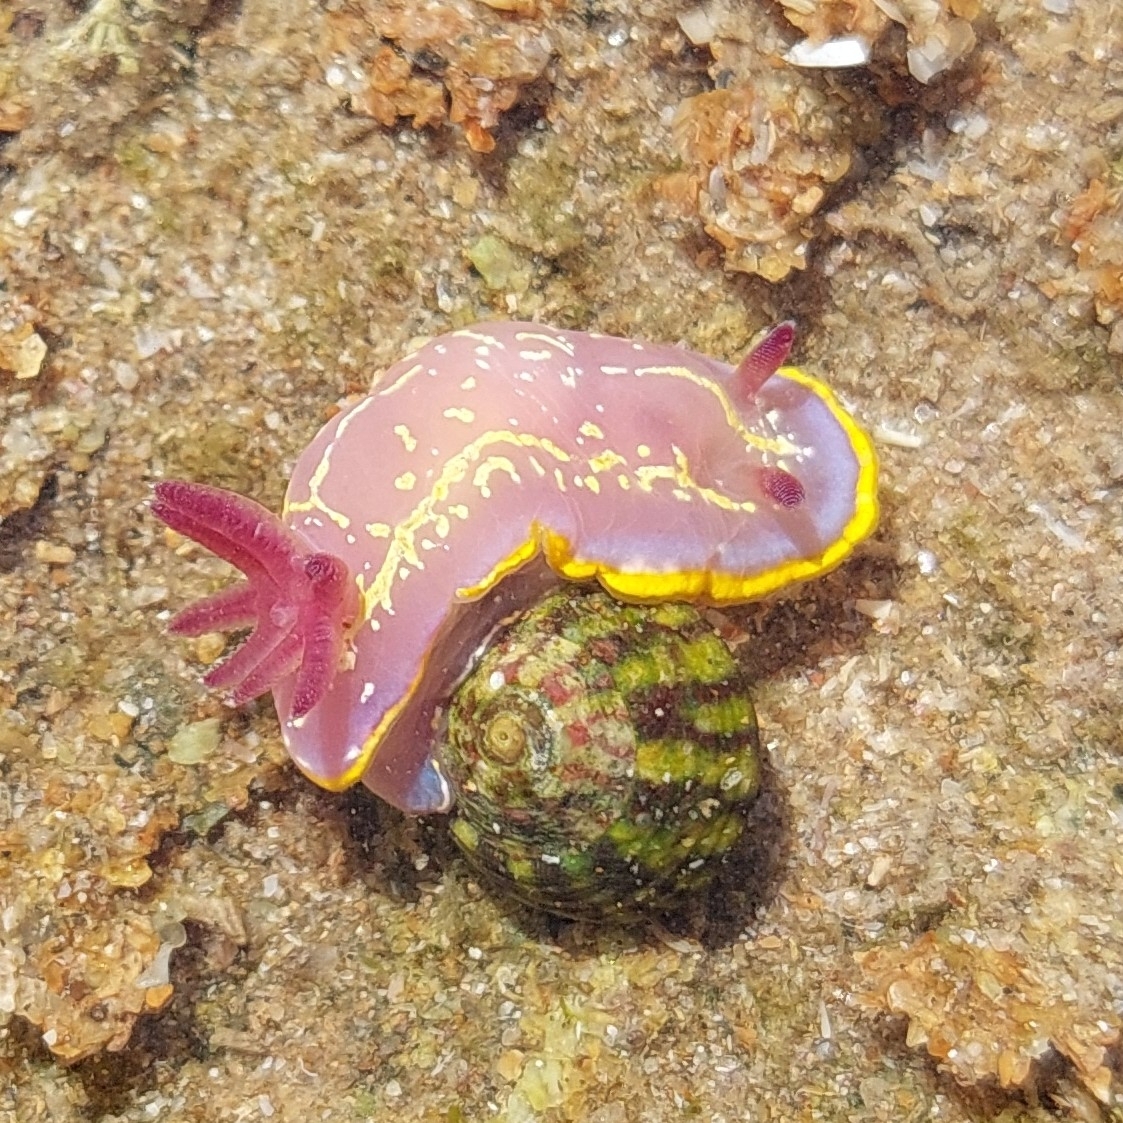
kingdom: Animalia
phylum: Mollusca
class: Gastropoda
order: Nudibranchia
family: Chromodorididae
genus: Felimida
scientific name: Felimida krohni
